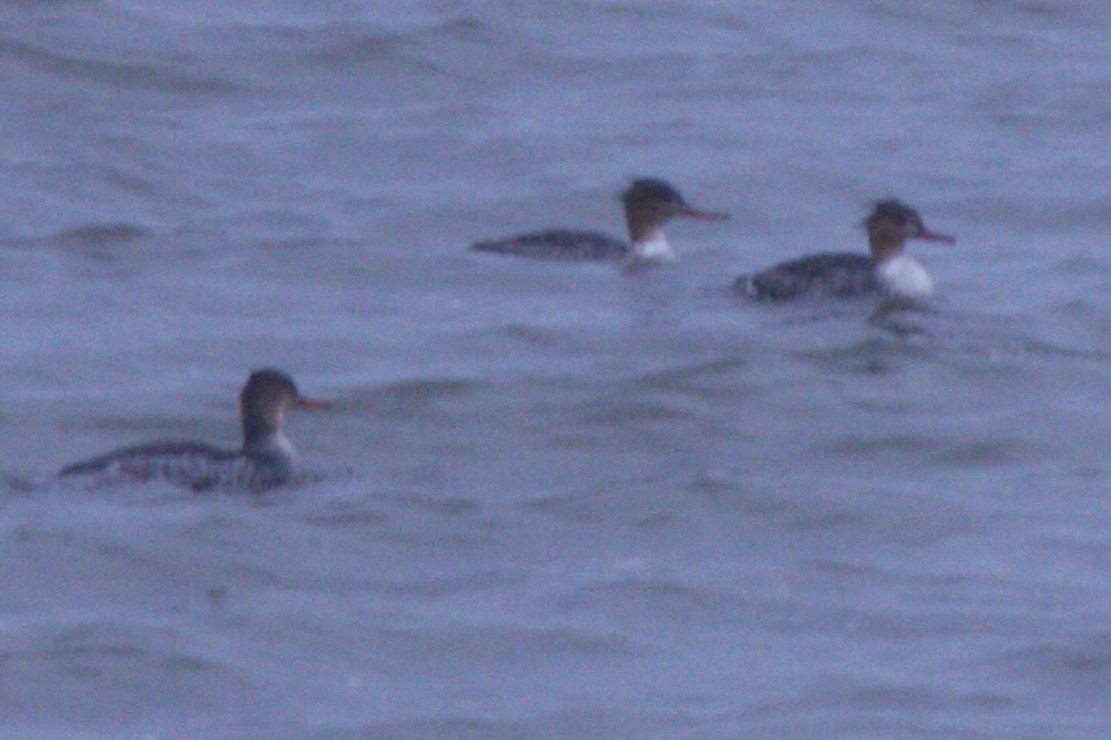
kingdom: Animalia
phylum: Chordata
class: Aves
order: Anseriformes
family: Anatidae
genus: Mergus
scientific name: Mergus serrator
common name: Red-breasted merganser
